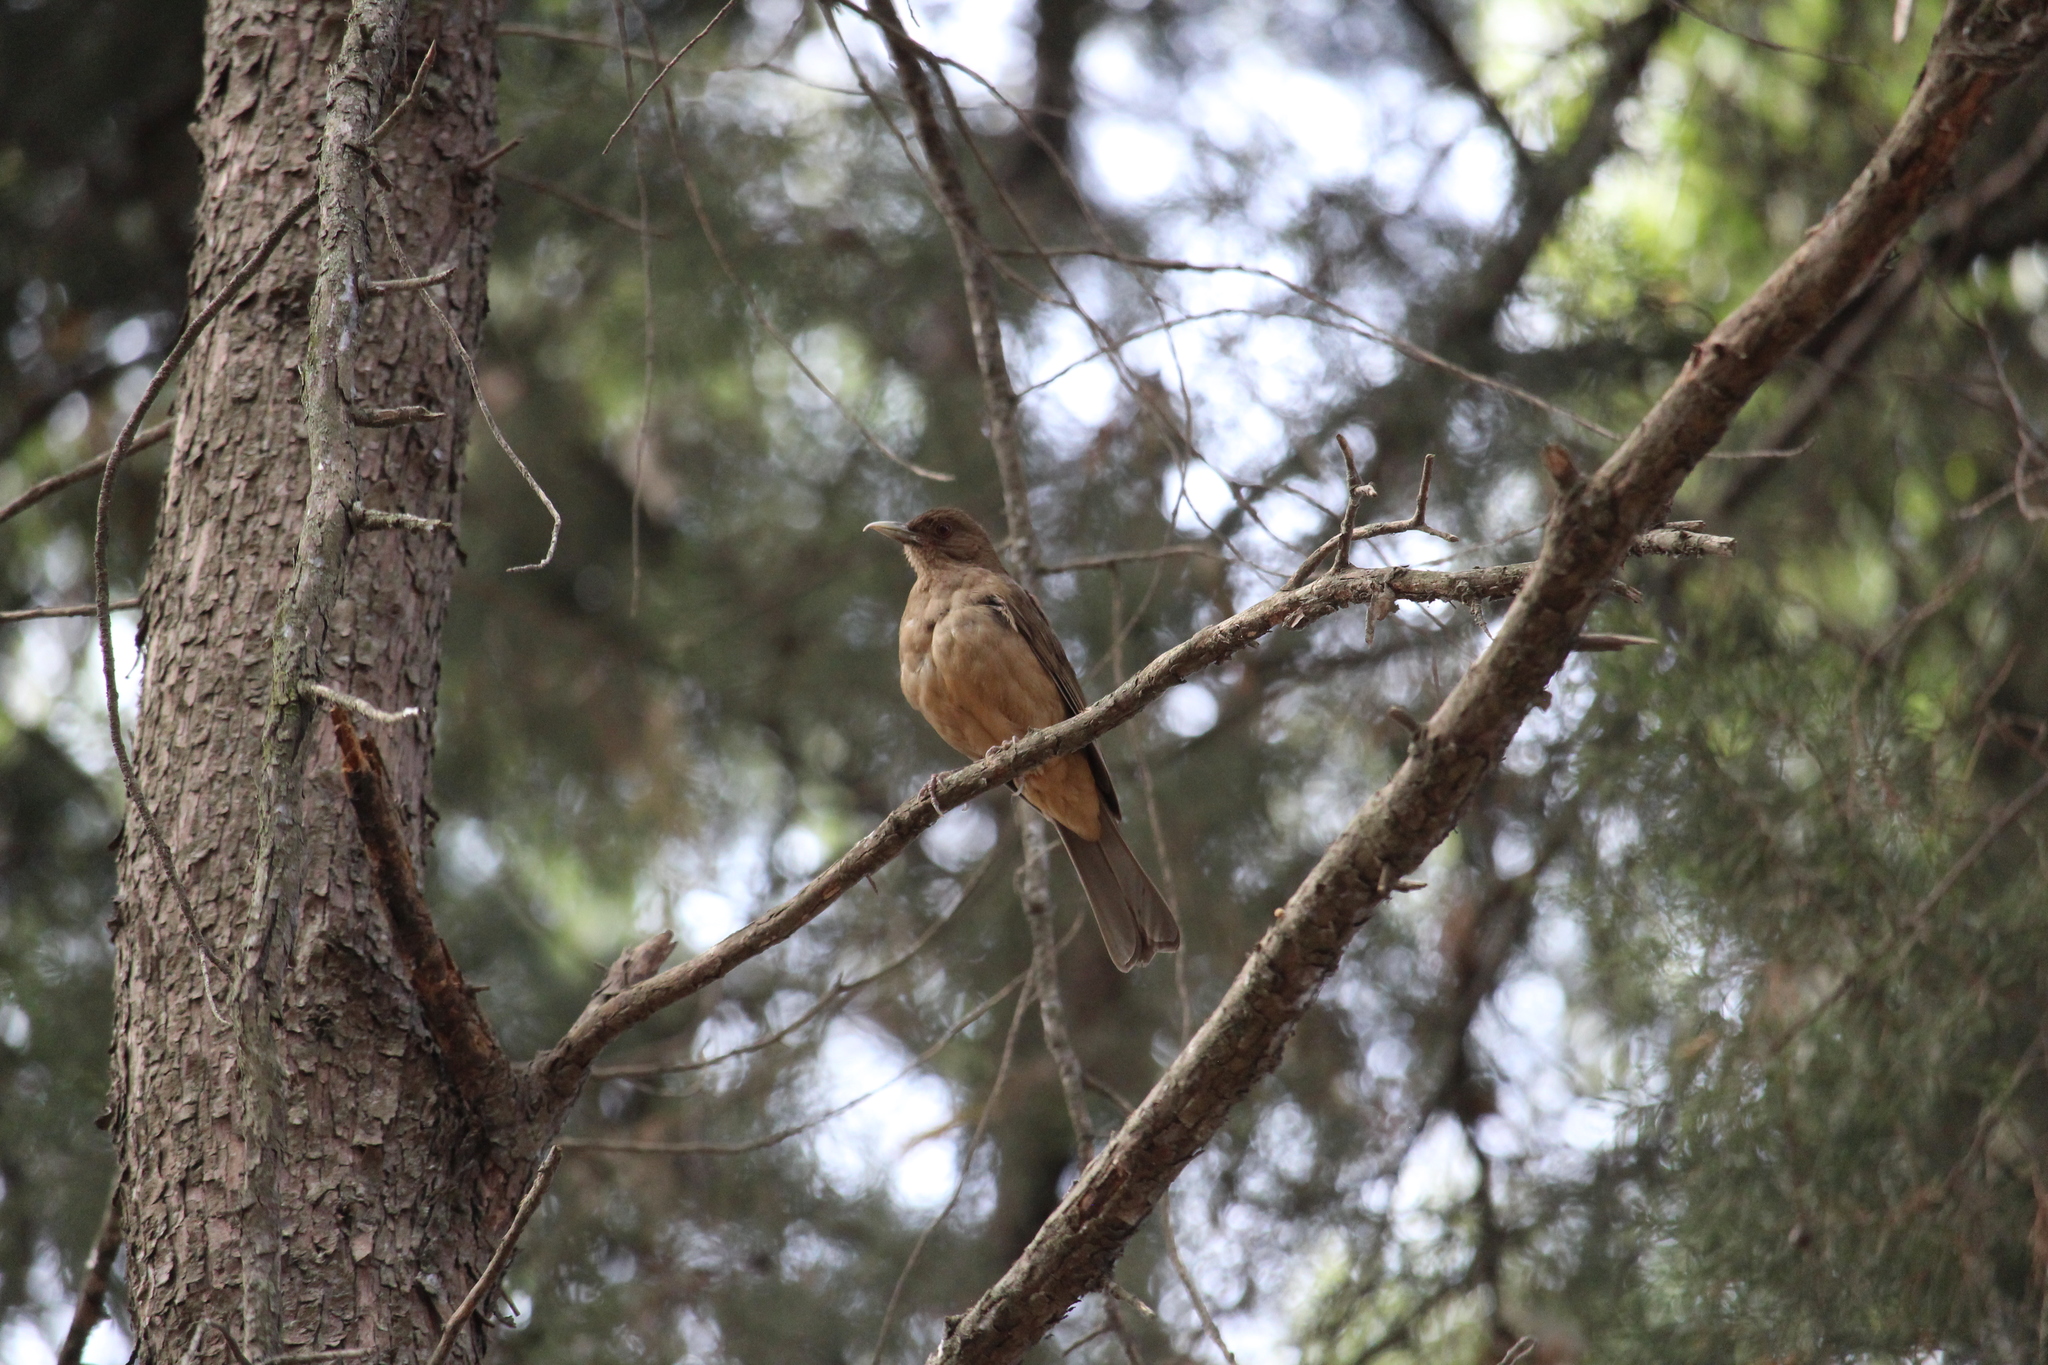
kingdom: Animalia
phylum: Chordata
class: Aves
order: Passeriformes
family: Turdidae
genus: Turdus
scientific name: Turdus grayi
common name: Clay-colored thrush
